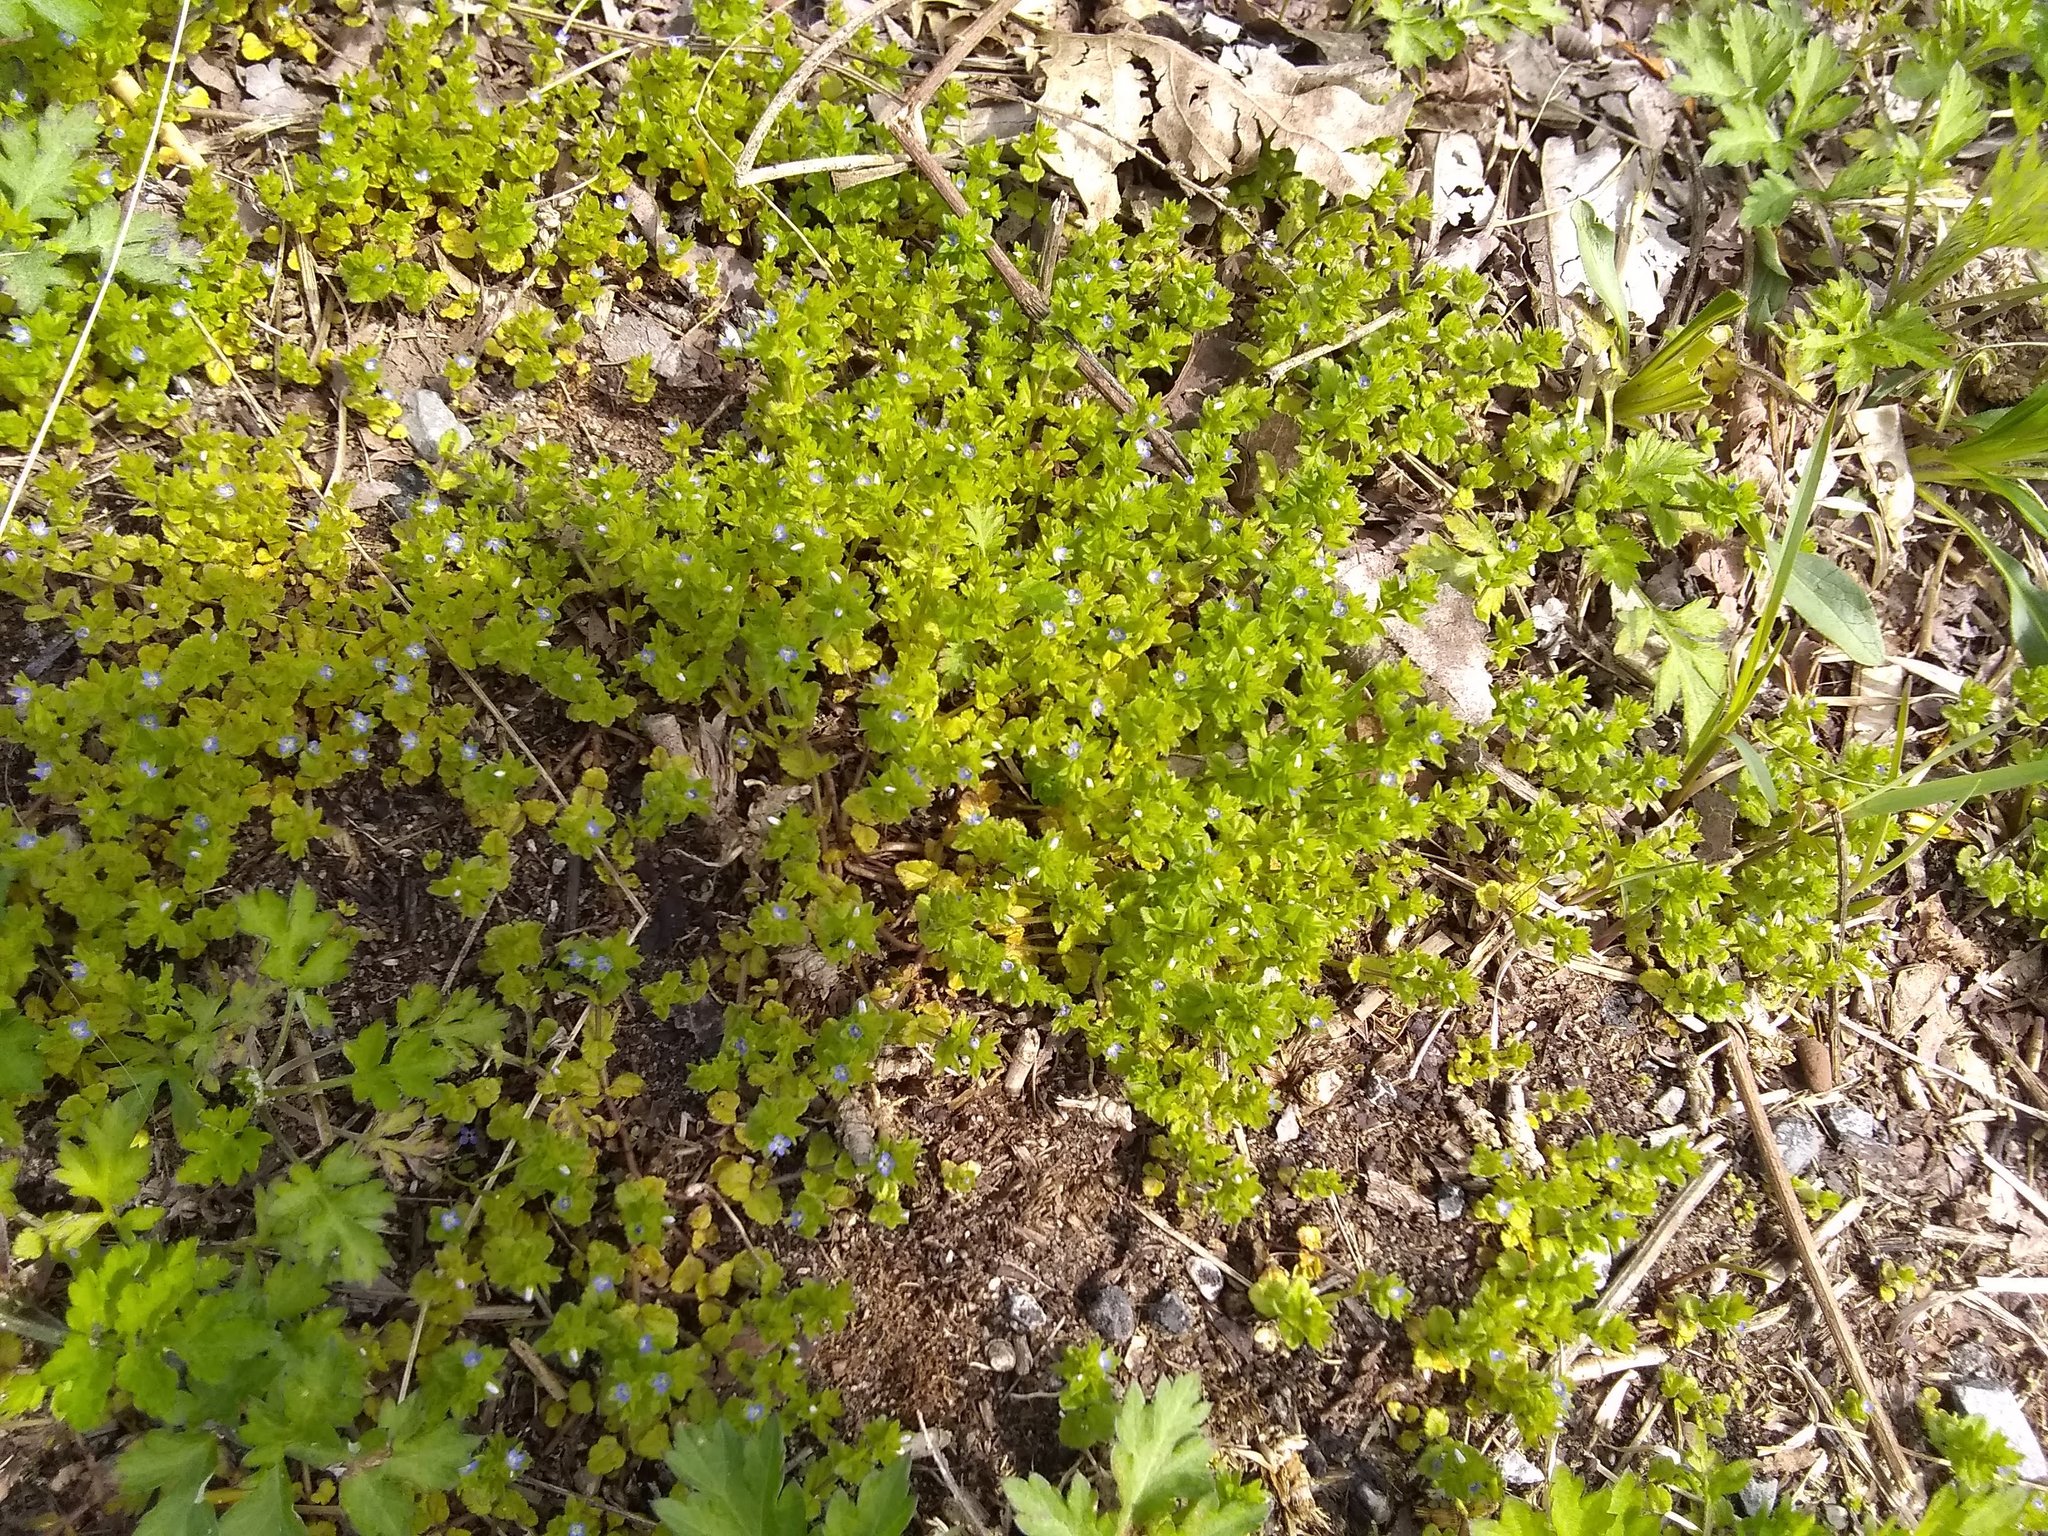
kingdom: Plantae
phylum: Tracheophyta
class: Magnoliopsida
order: Lamiales
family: Plantaginaceae
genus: Veronica
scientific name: Veronica arvensis
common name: Corn speedwell
